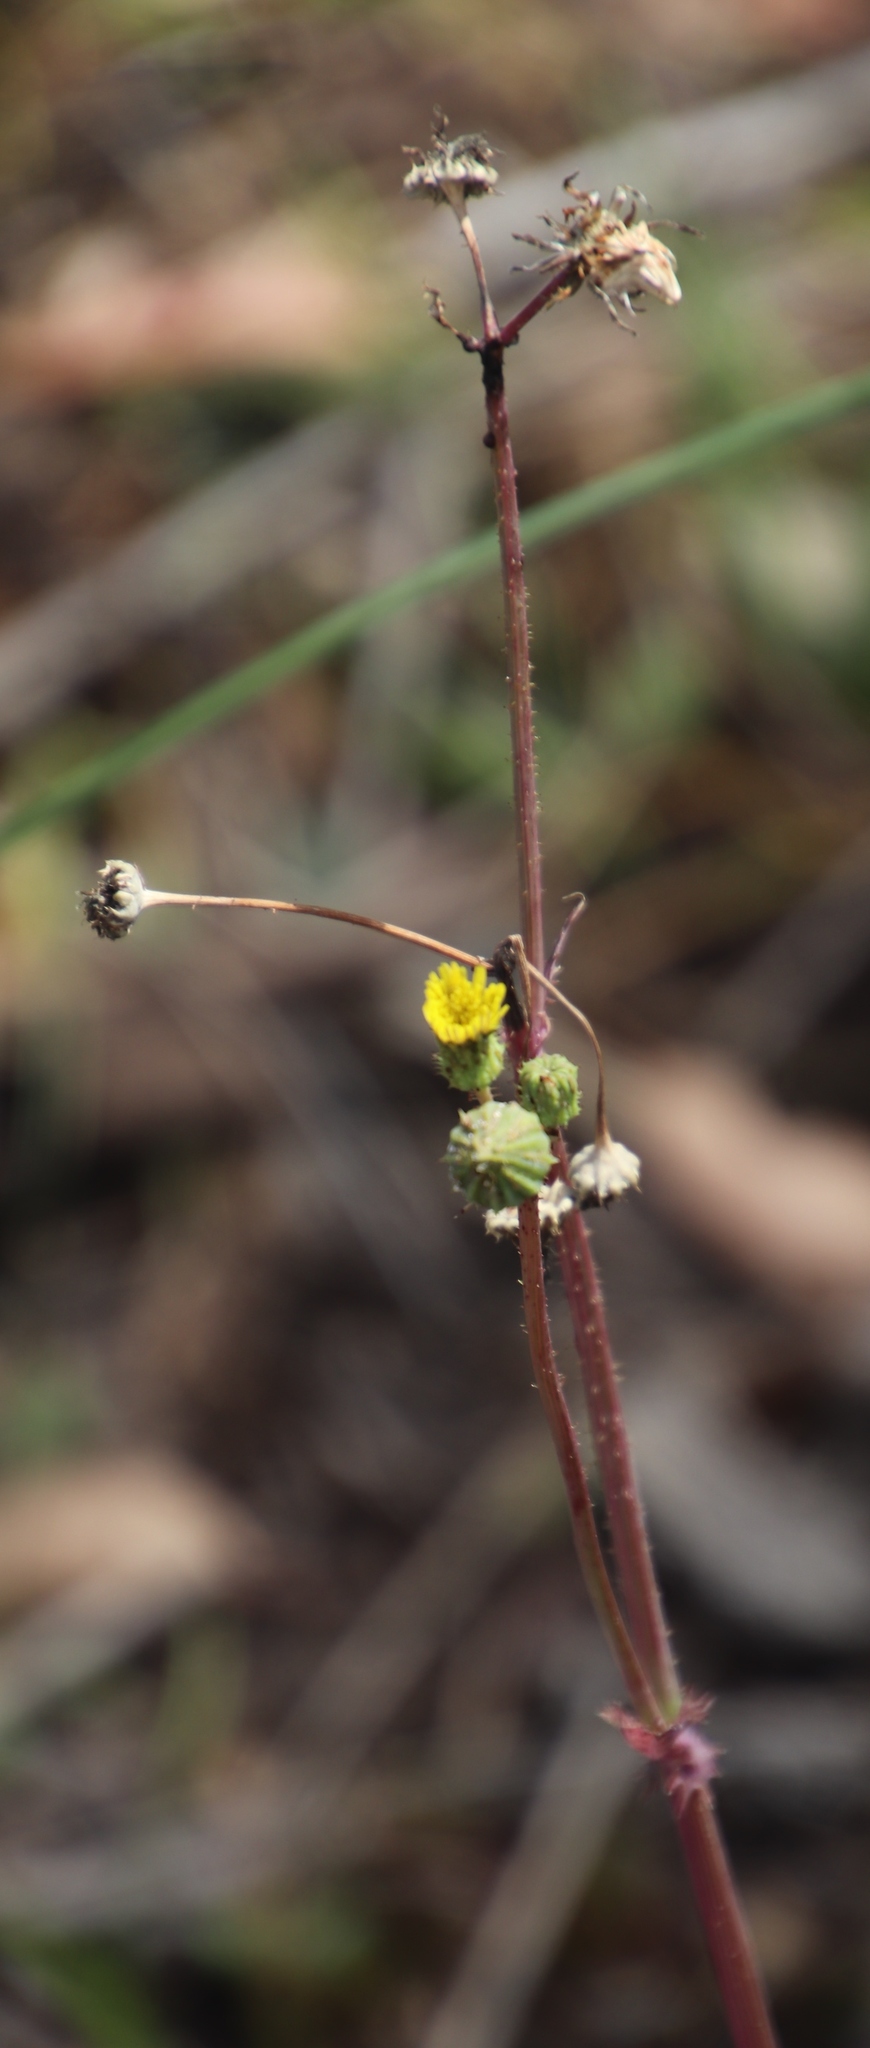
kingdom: Plantae
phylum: Tracheophyta
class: Magnoliopsida
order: Asterales
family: Asteraceae
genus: Sonchus
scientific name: Sonchus asper
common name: Prickly sow-thistle
